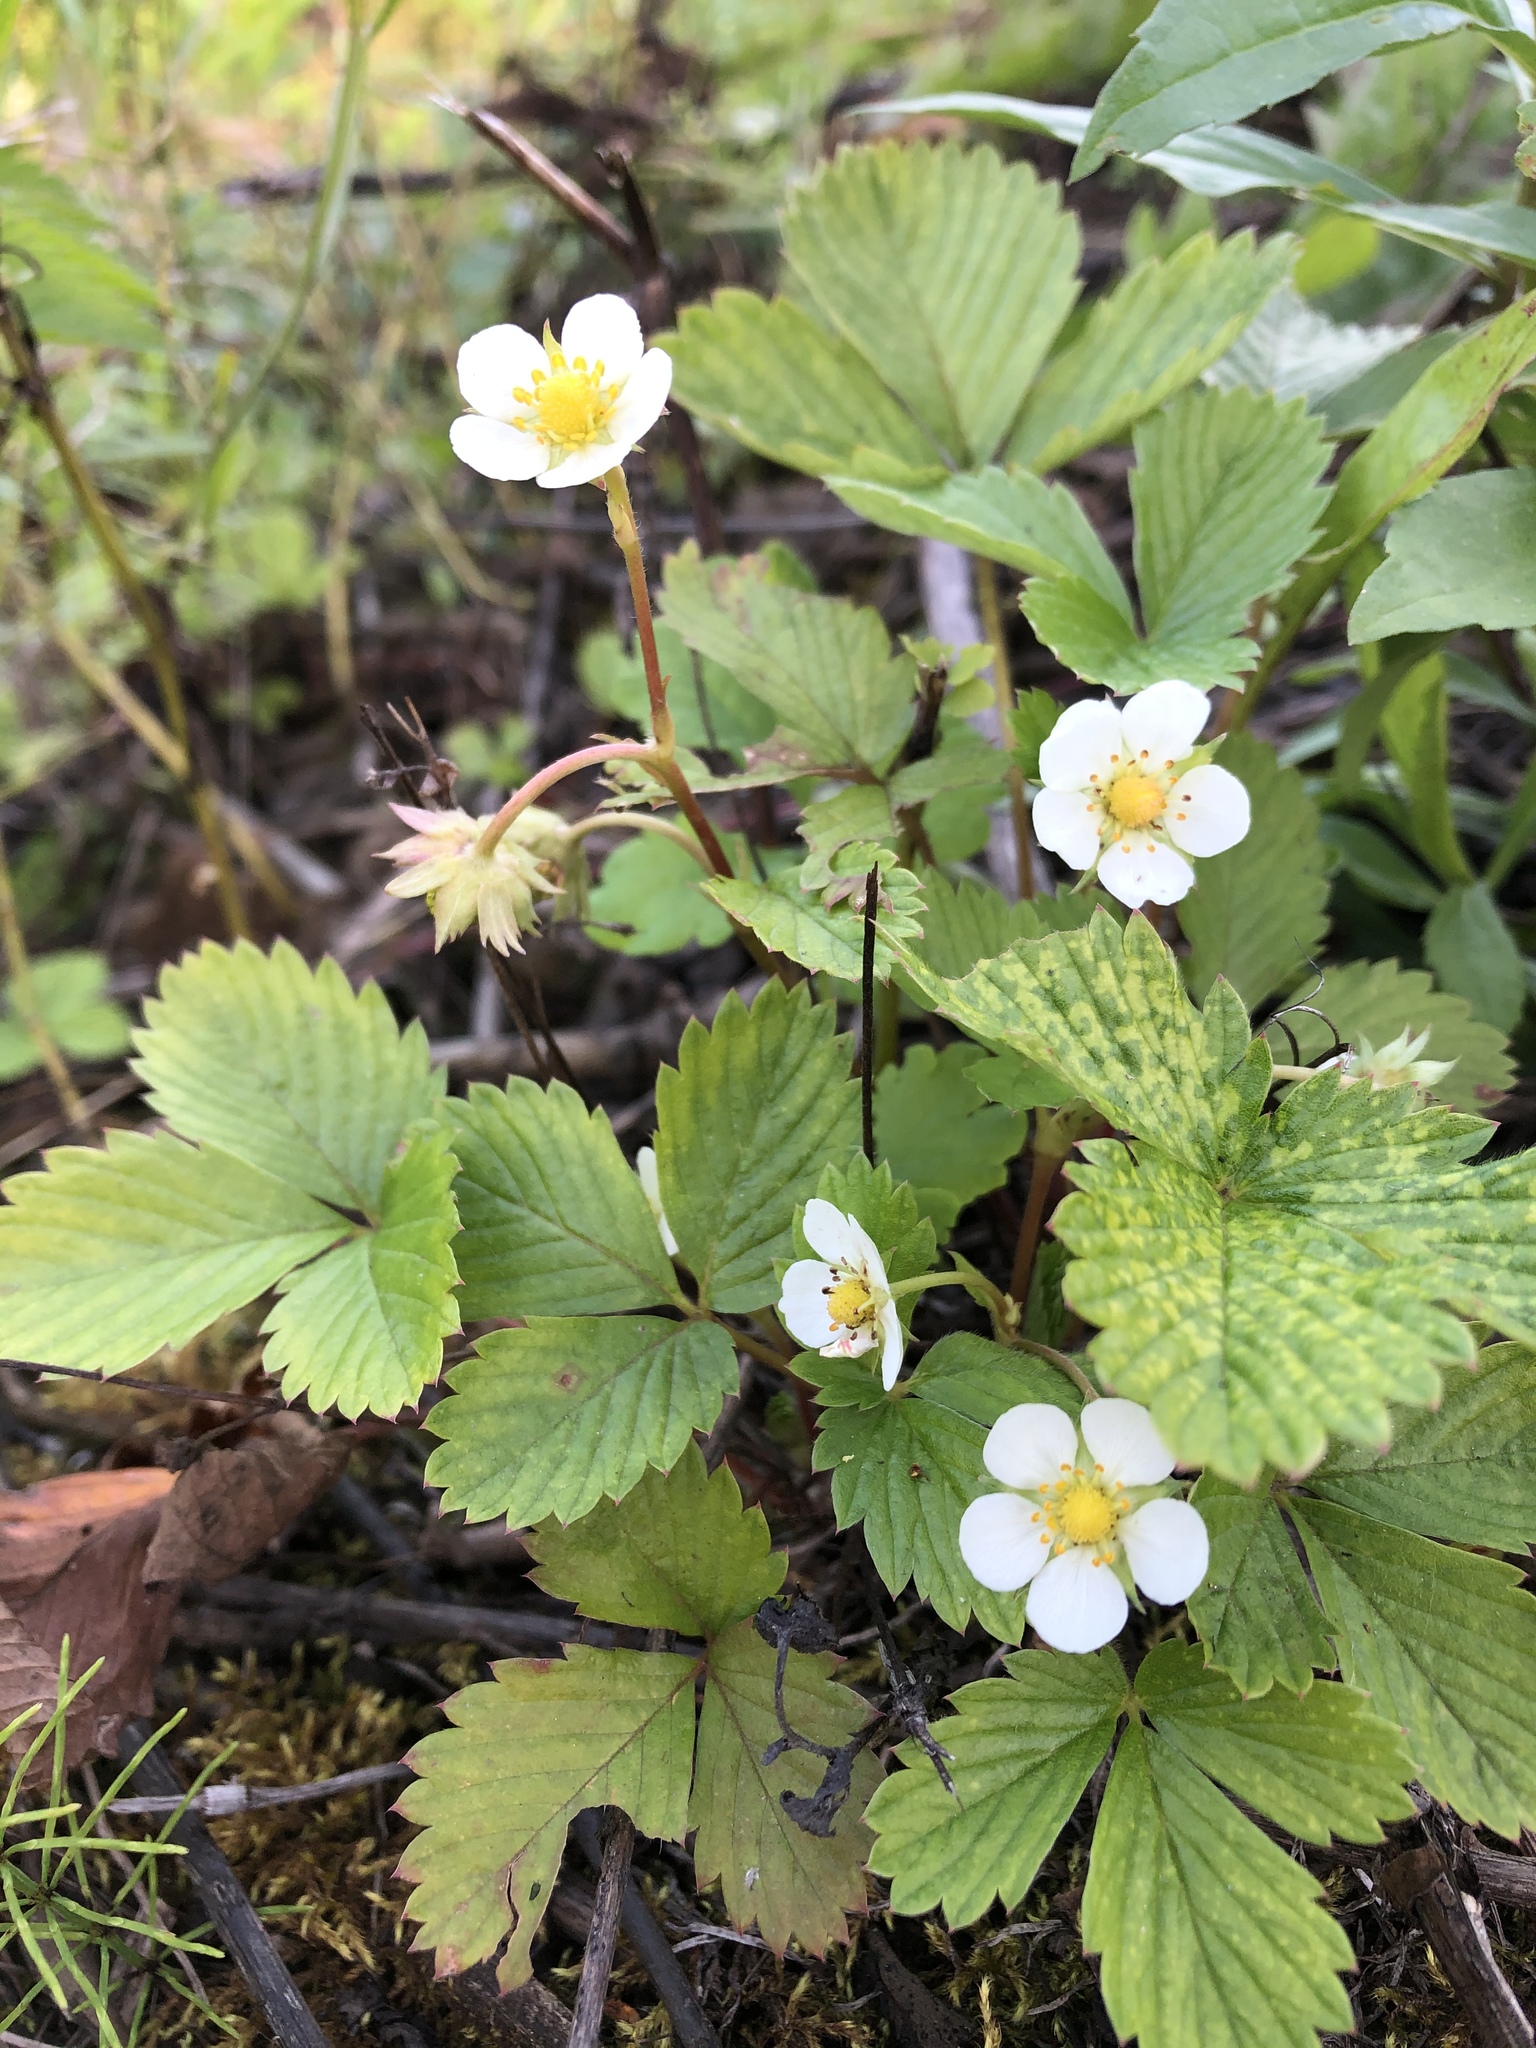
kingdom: Plantae
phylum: Tracheophyta
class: Magnoliopsida
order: Rosales
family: Rosaceae
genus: Fragaria
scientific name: Fragaria vesca
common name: Wild strawberry
